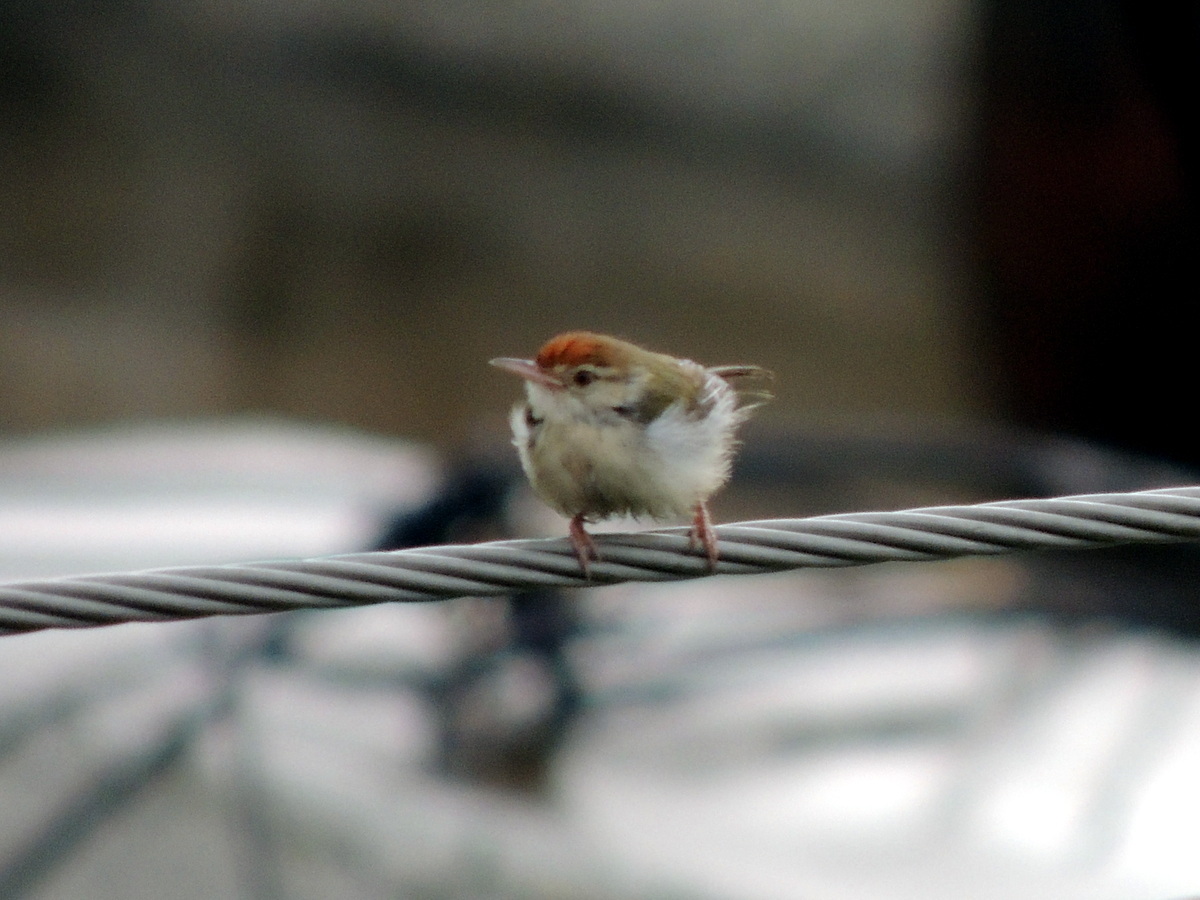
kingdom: Animalia
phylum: Chordata
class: Aves
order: Passeriformes
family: Cisticolidae
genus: Orthotomus
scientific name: Orthotomus sutorius
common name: Common tailorbird
